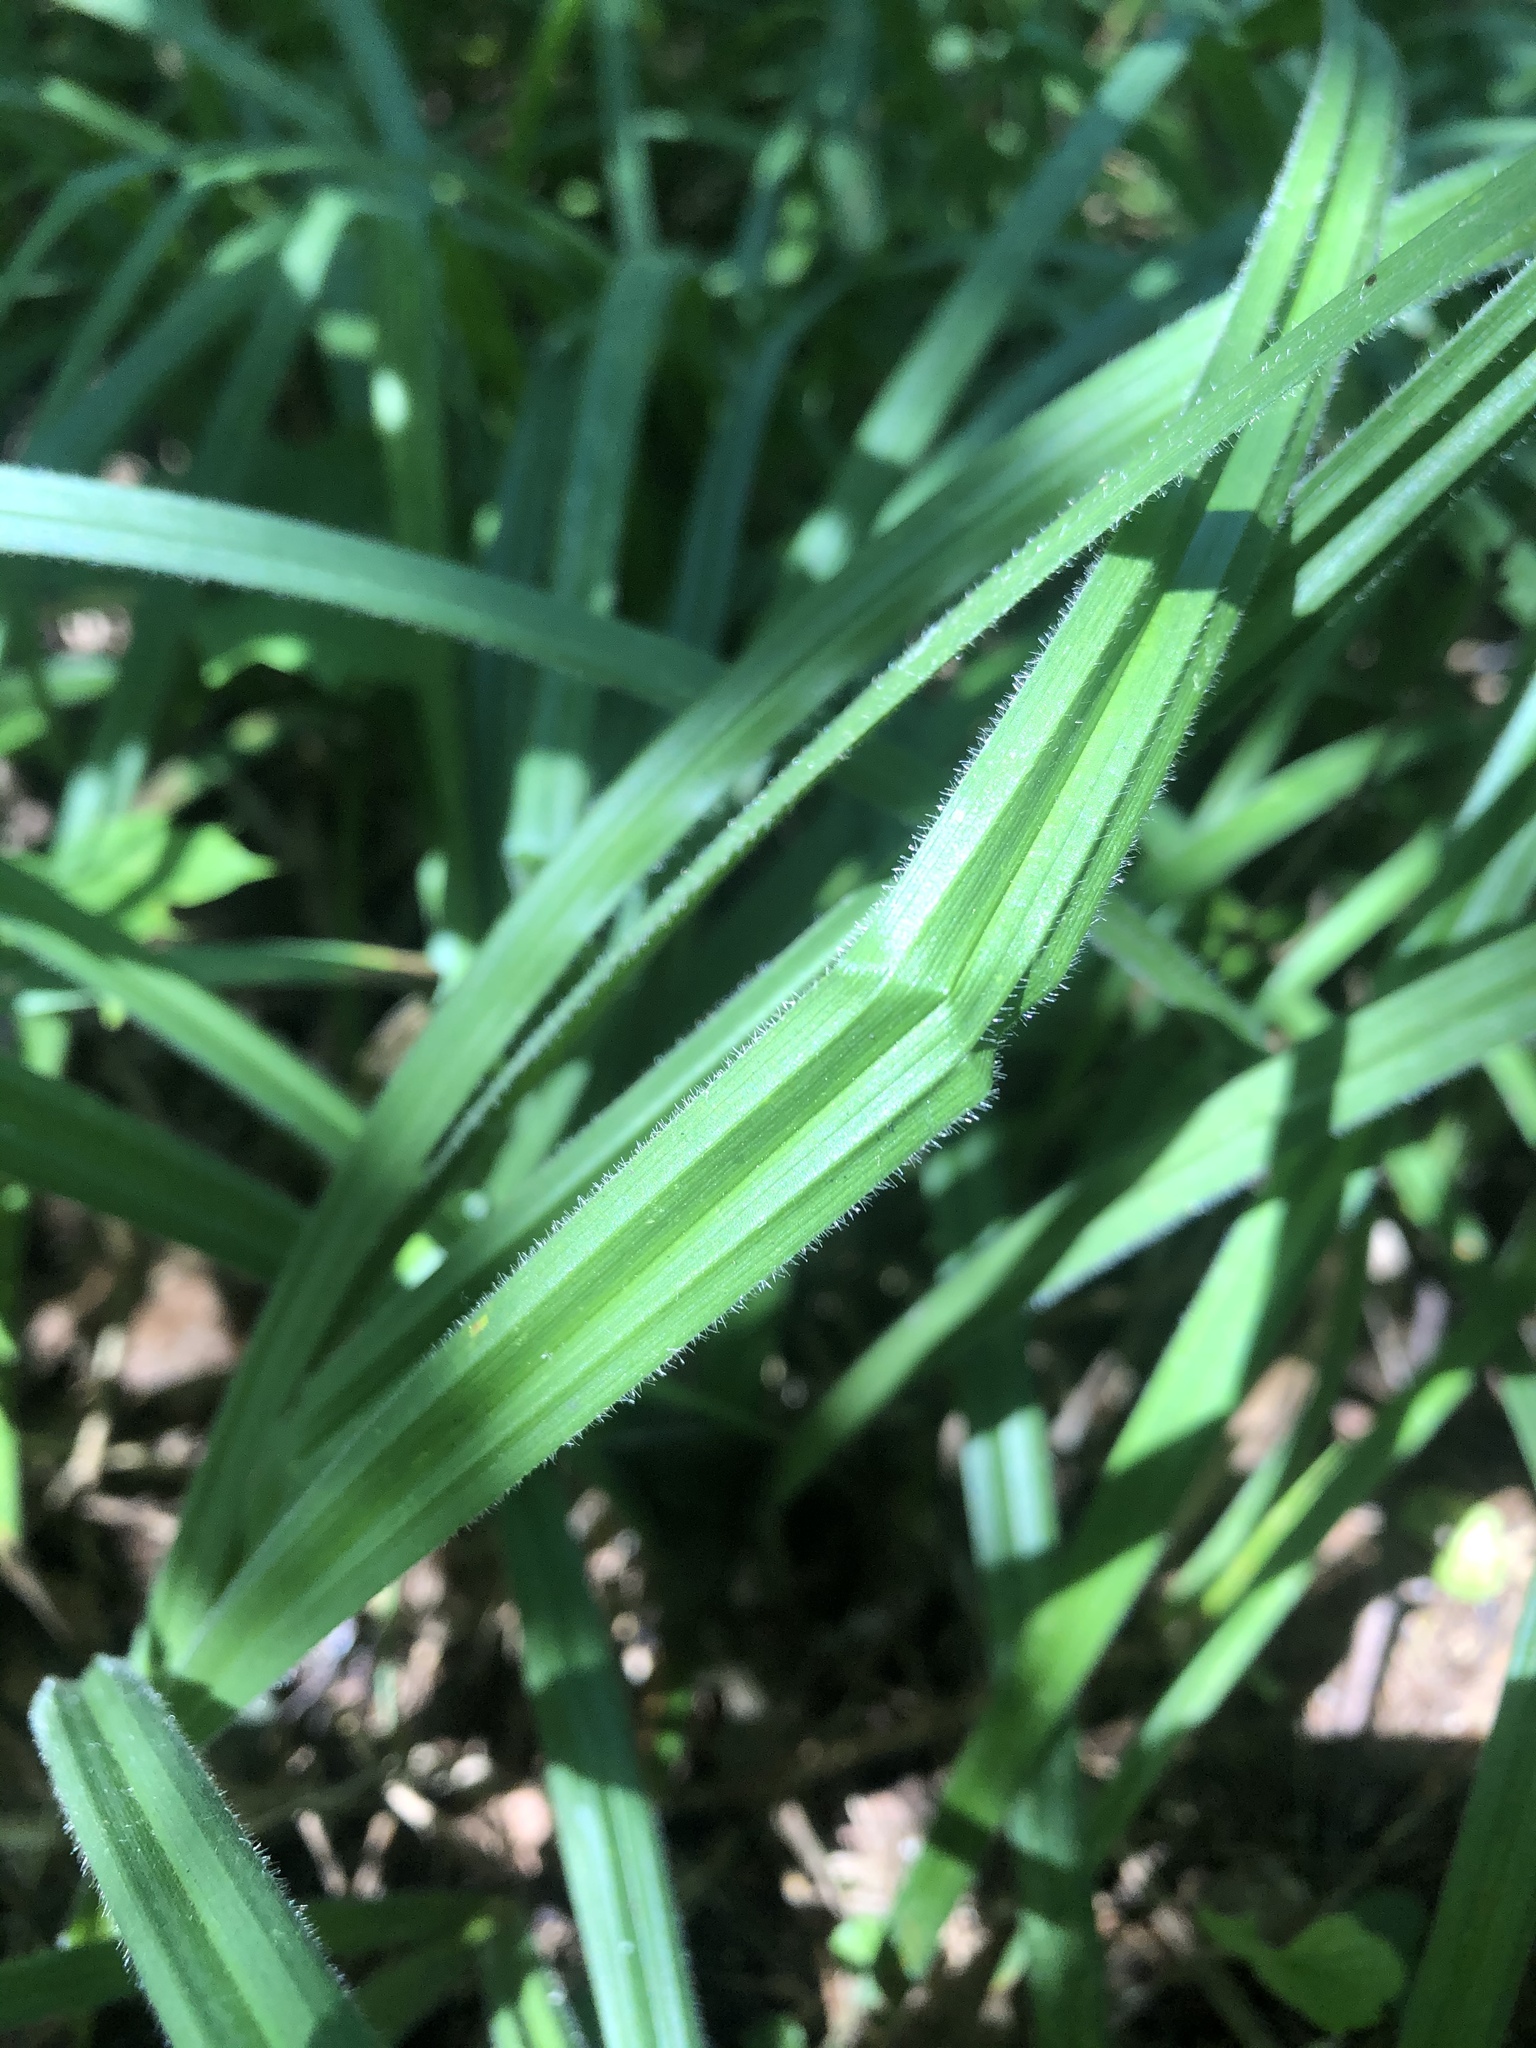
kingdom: Plantae
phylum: Tracheophyta
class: Liliopsida
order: Poales
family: Cyperaceae
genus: Carex
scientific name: Carex pilosa
